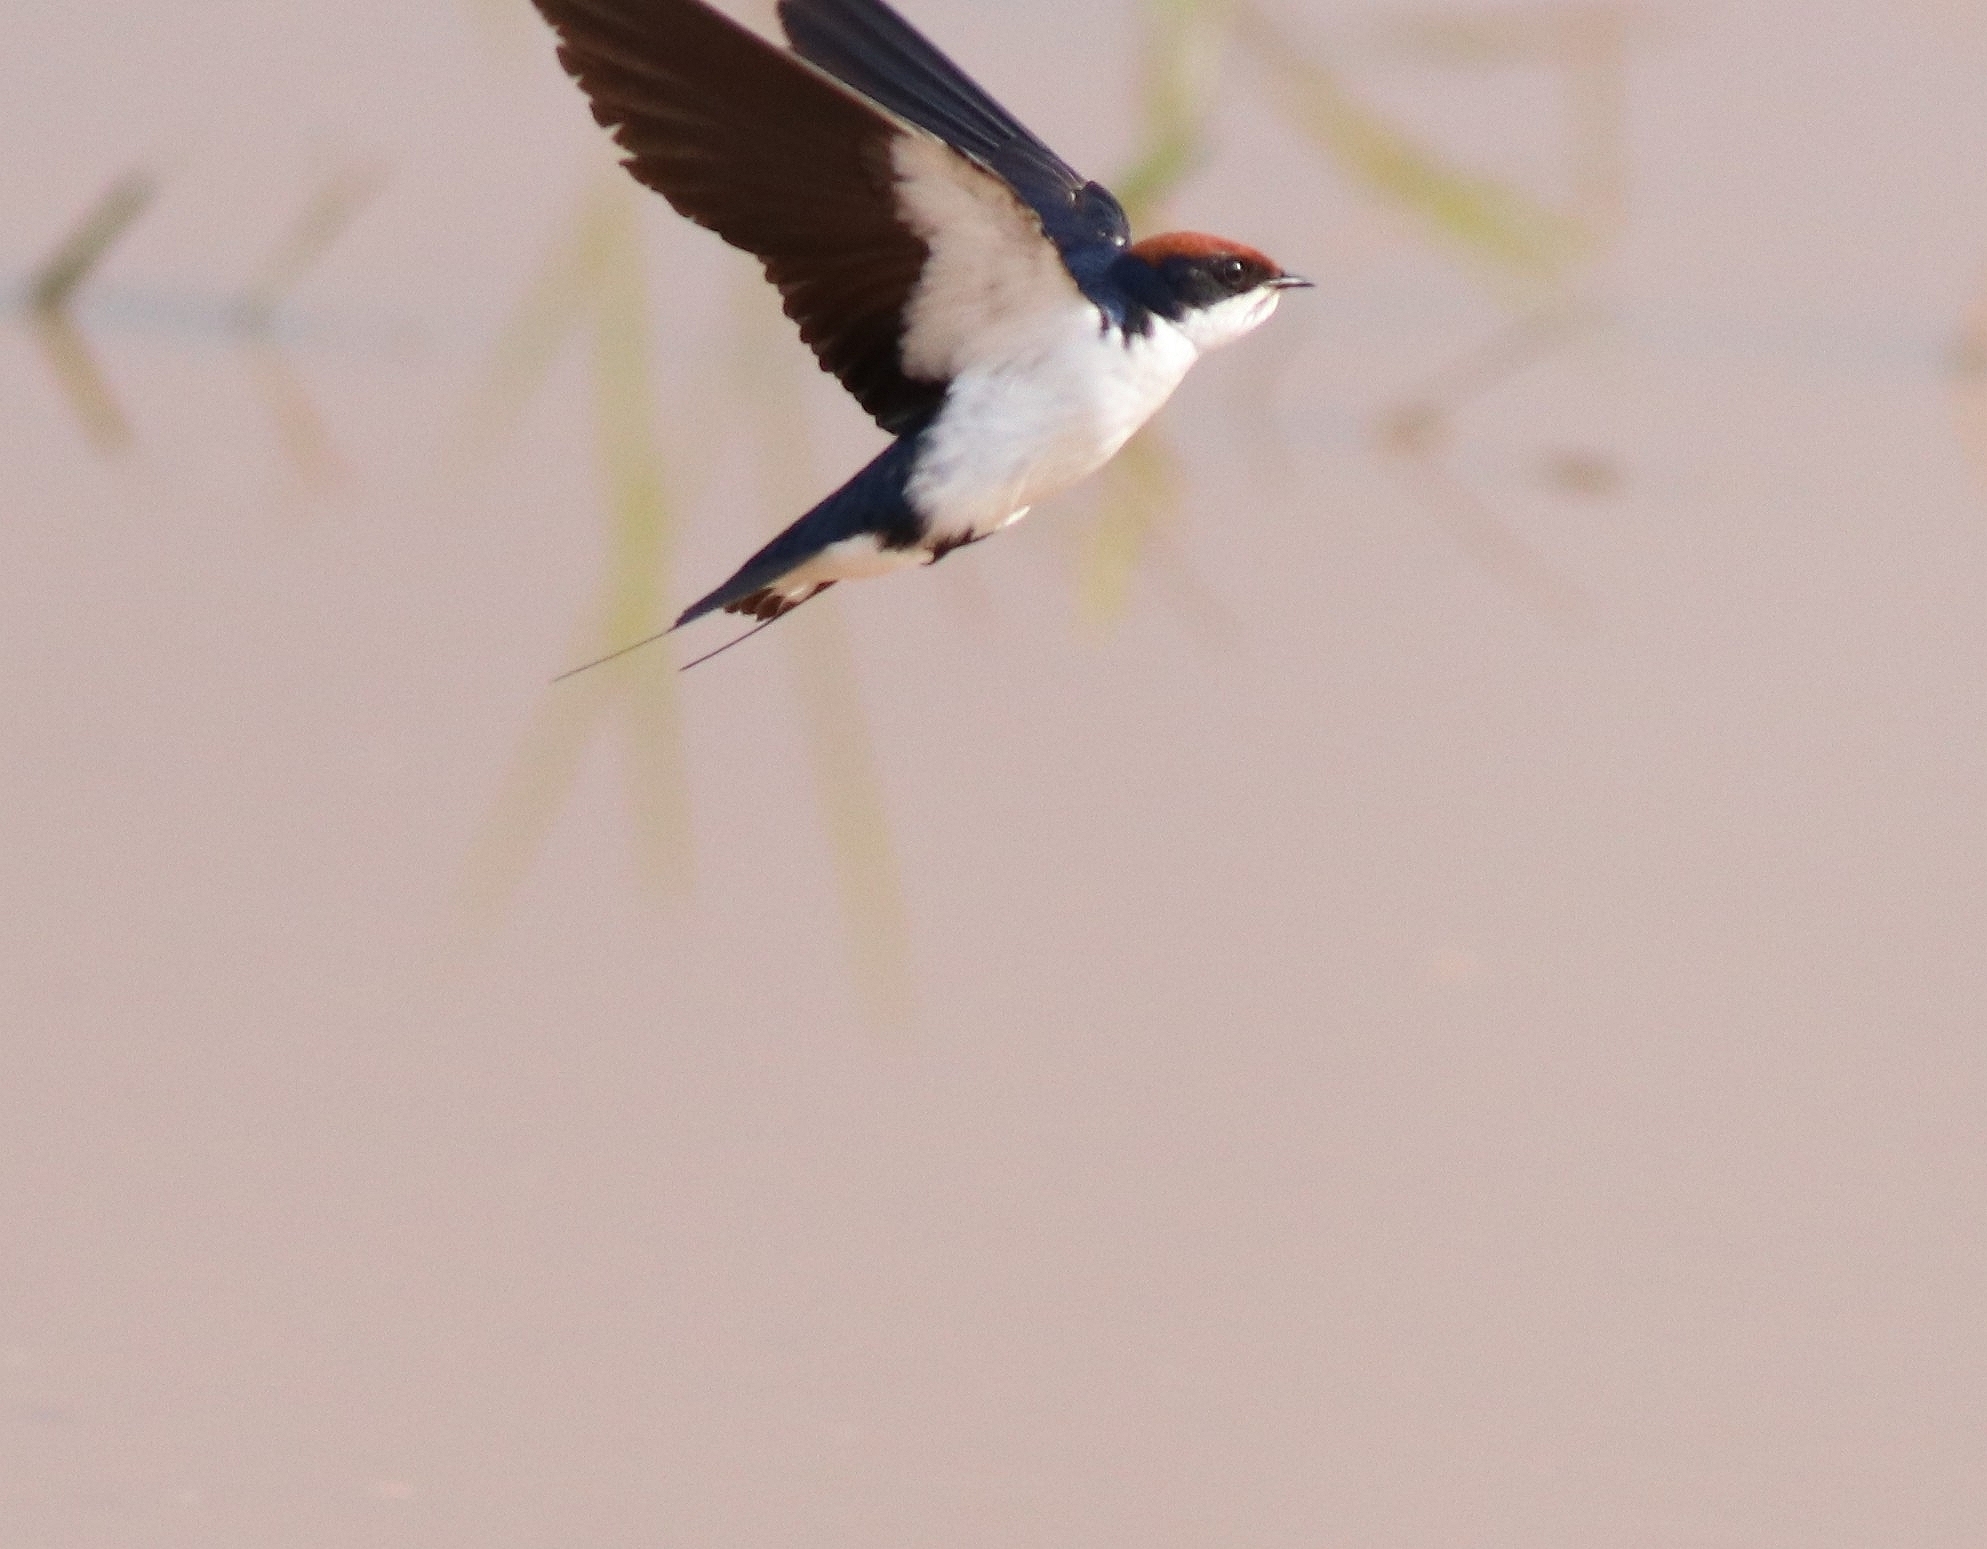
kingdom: Animalia
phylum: Chordata
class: Aves
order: Passeriformes
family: Hirundinidae
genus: Hirundo
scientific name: Hirundo smithii
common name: Wire-tailed swallow
